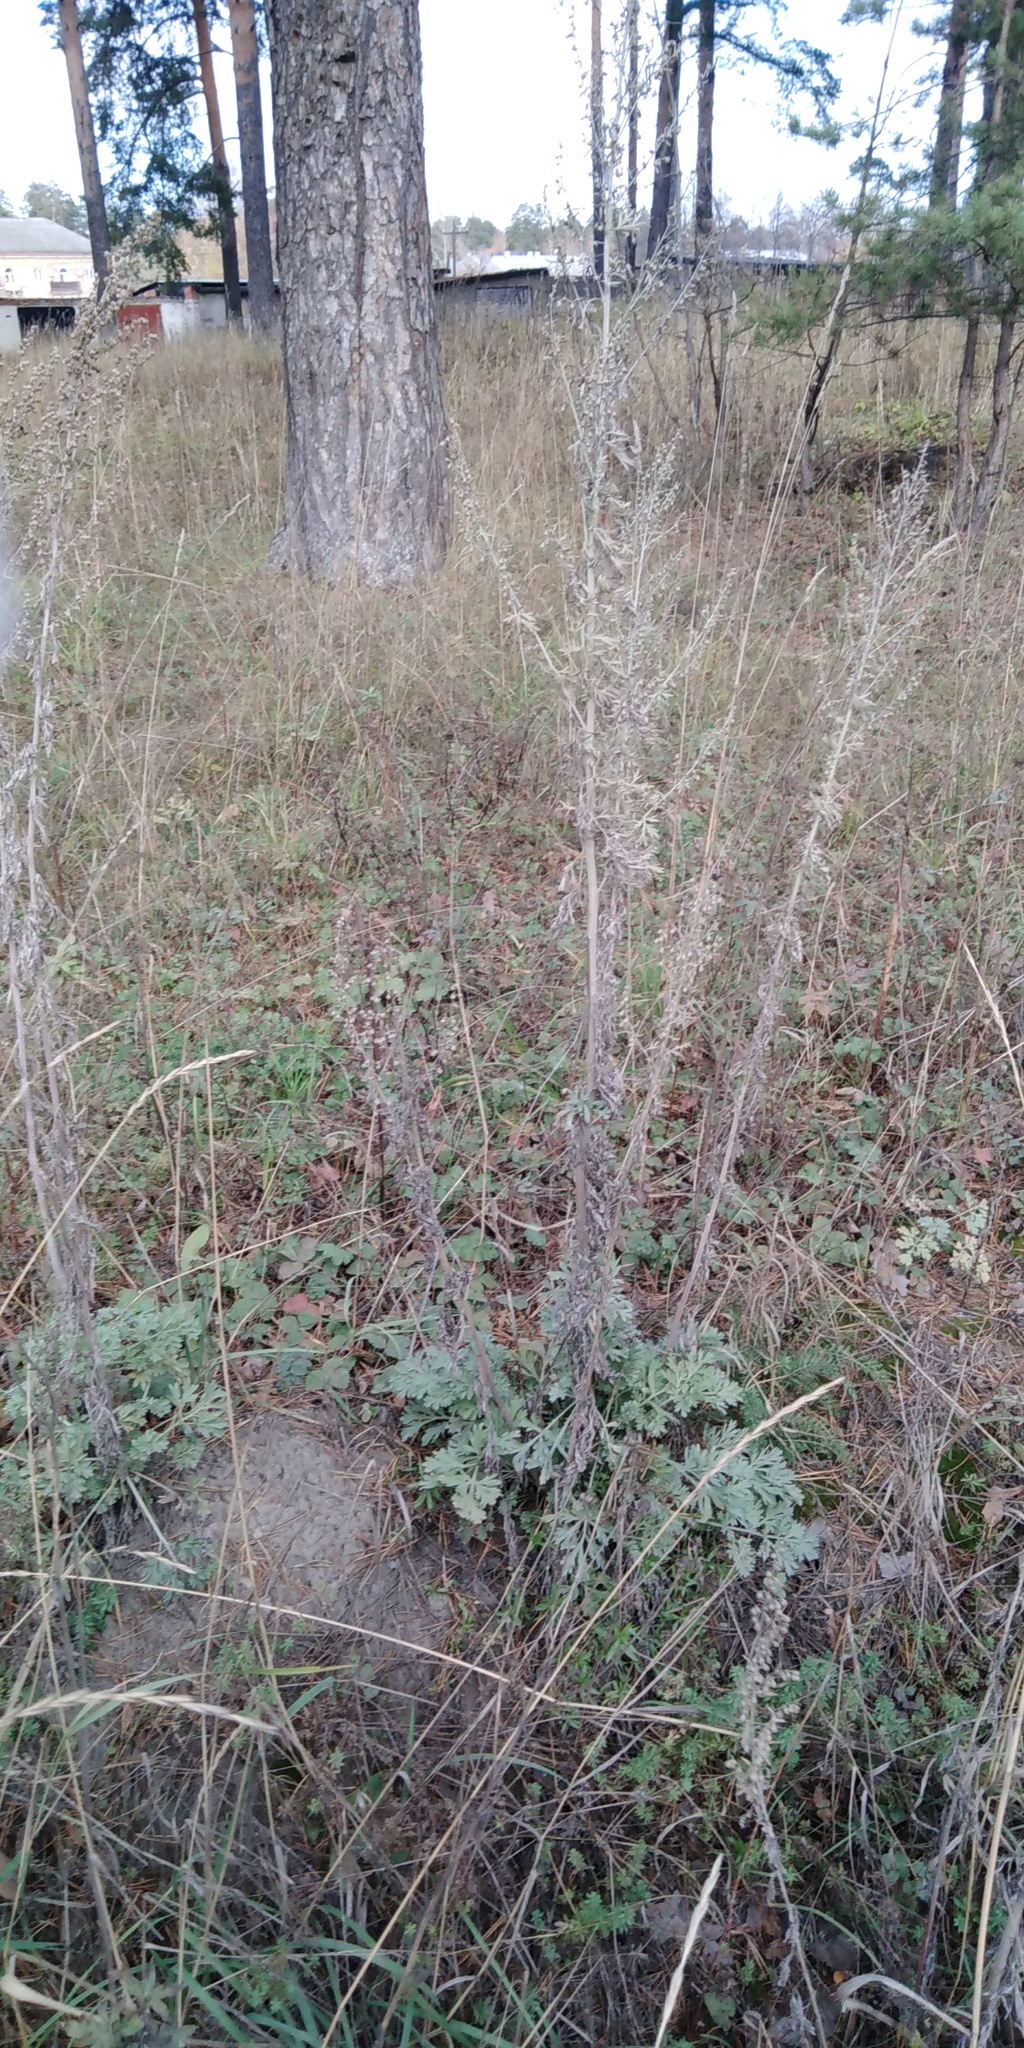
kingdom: Plantae
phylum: Tracheophyta
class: Magnoliopsida
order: Asterales
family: Asteraceae
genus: Artemisia
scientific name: Artemisia absinthium
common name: Wormwood
